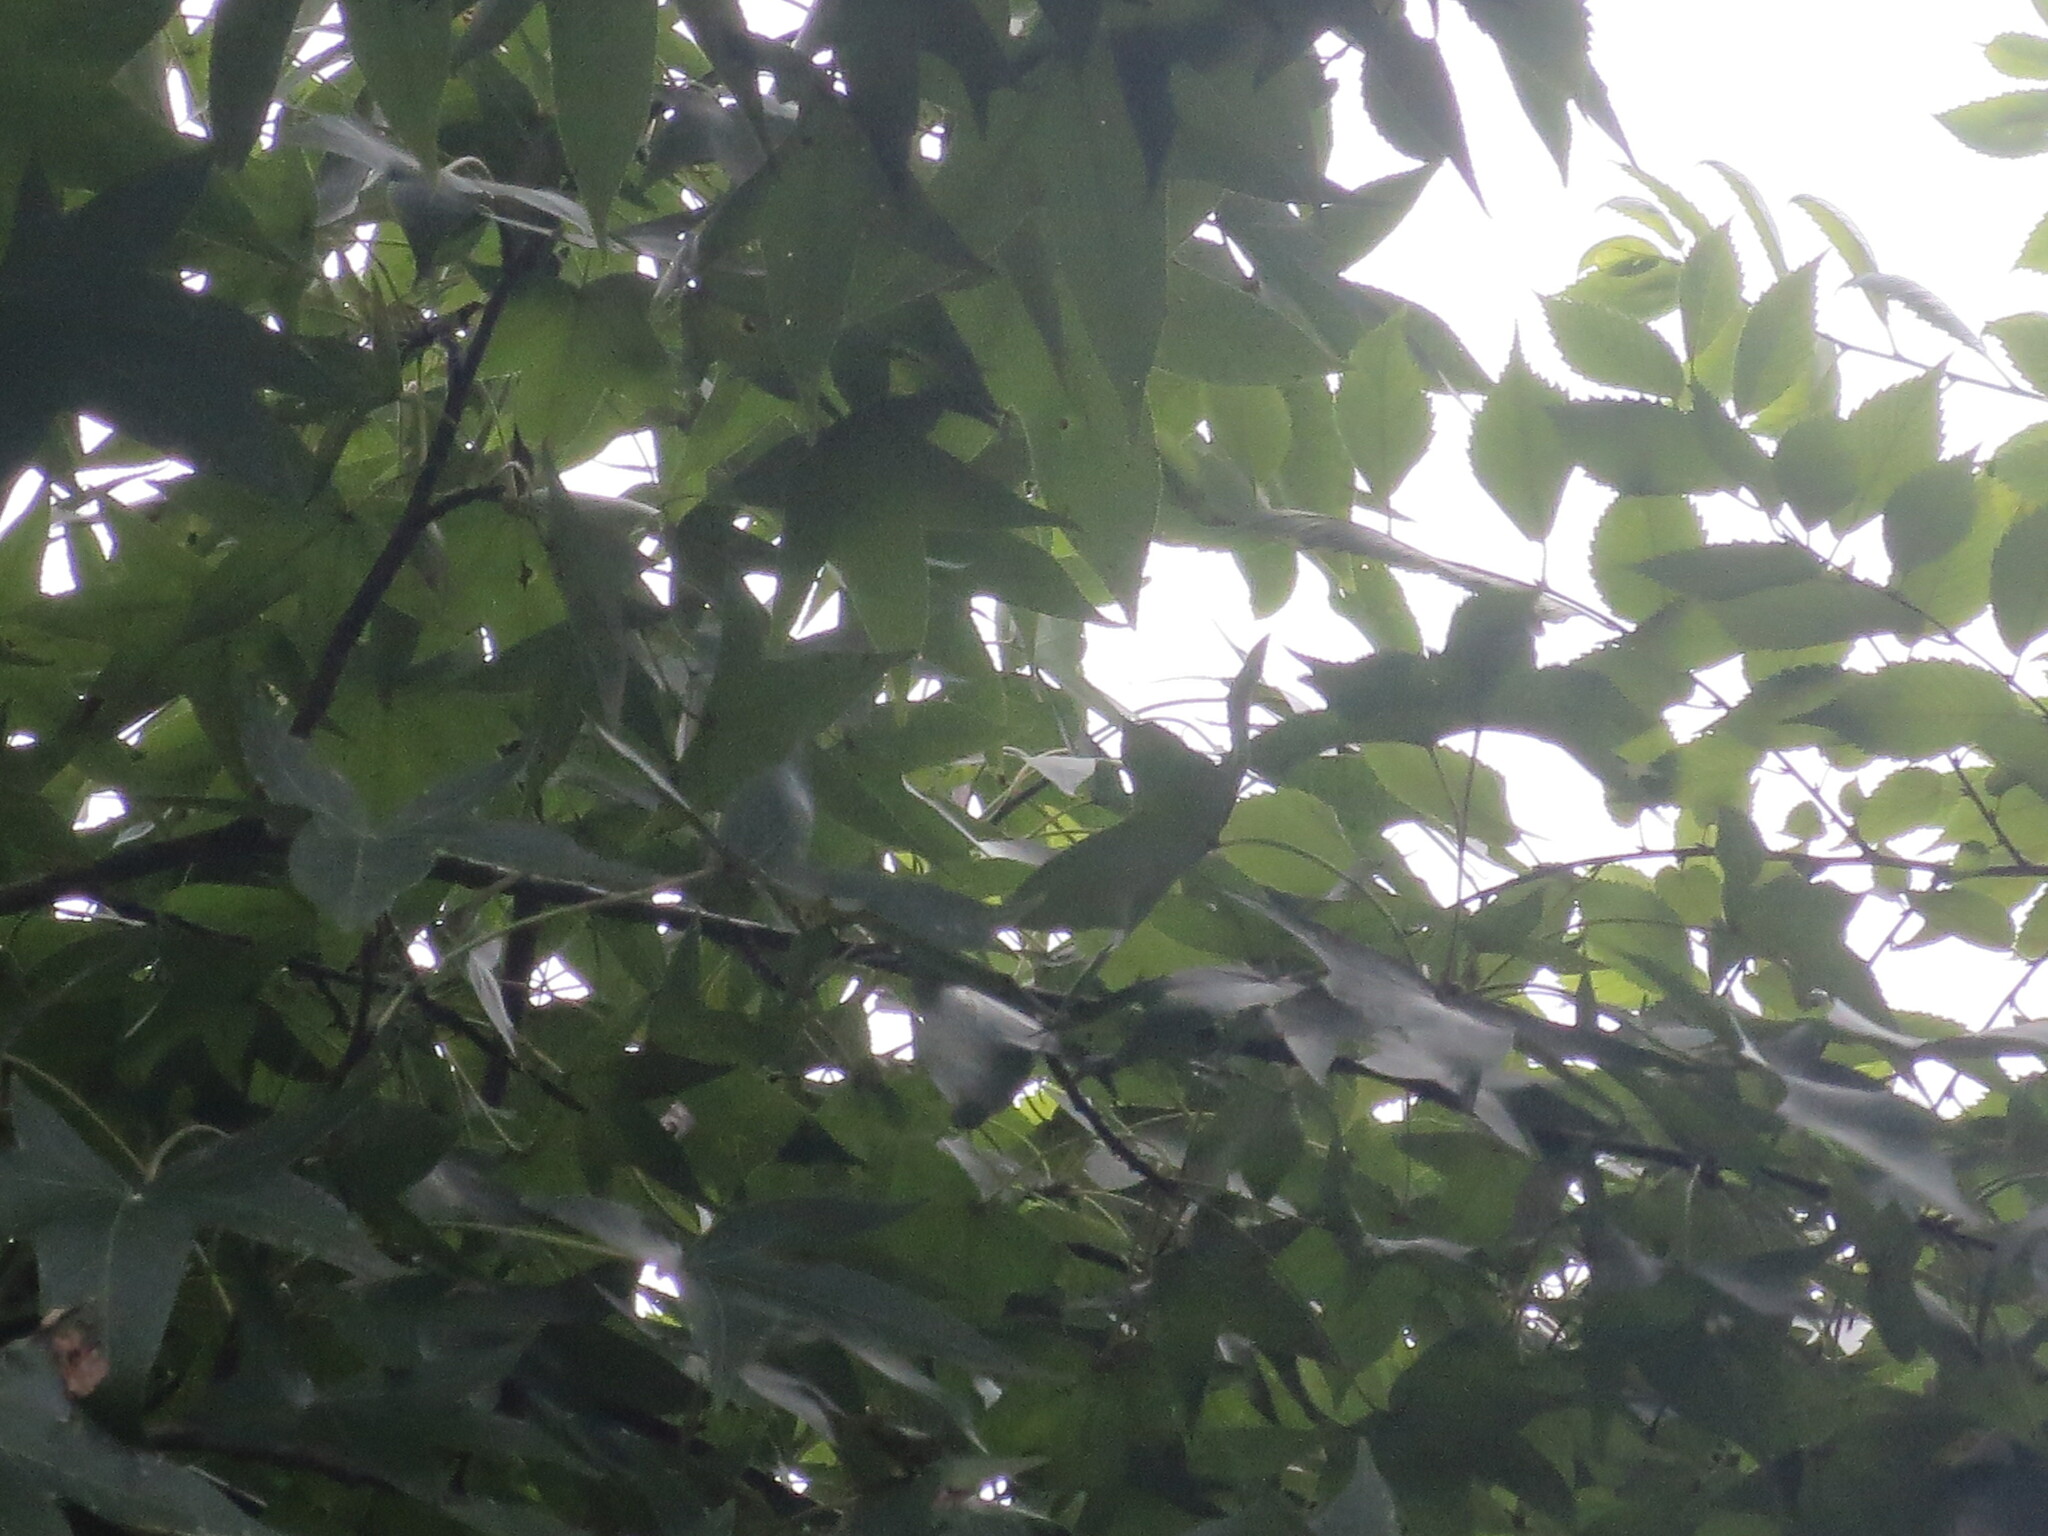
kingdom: Plantae
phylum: Tracheophyta
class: Magnoliopsida
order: Saxifragales
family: Altingiaceae
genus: Liquidambar
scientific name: Liquidambar styraciflua
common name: Sweet gum
